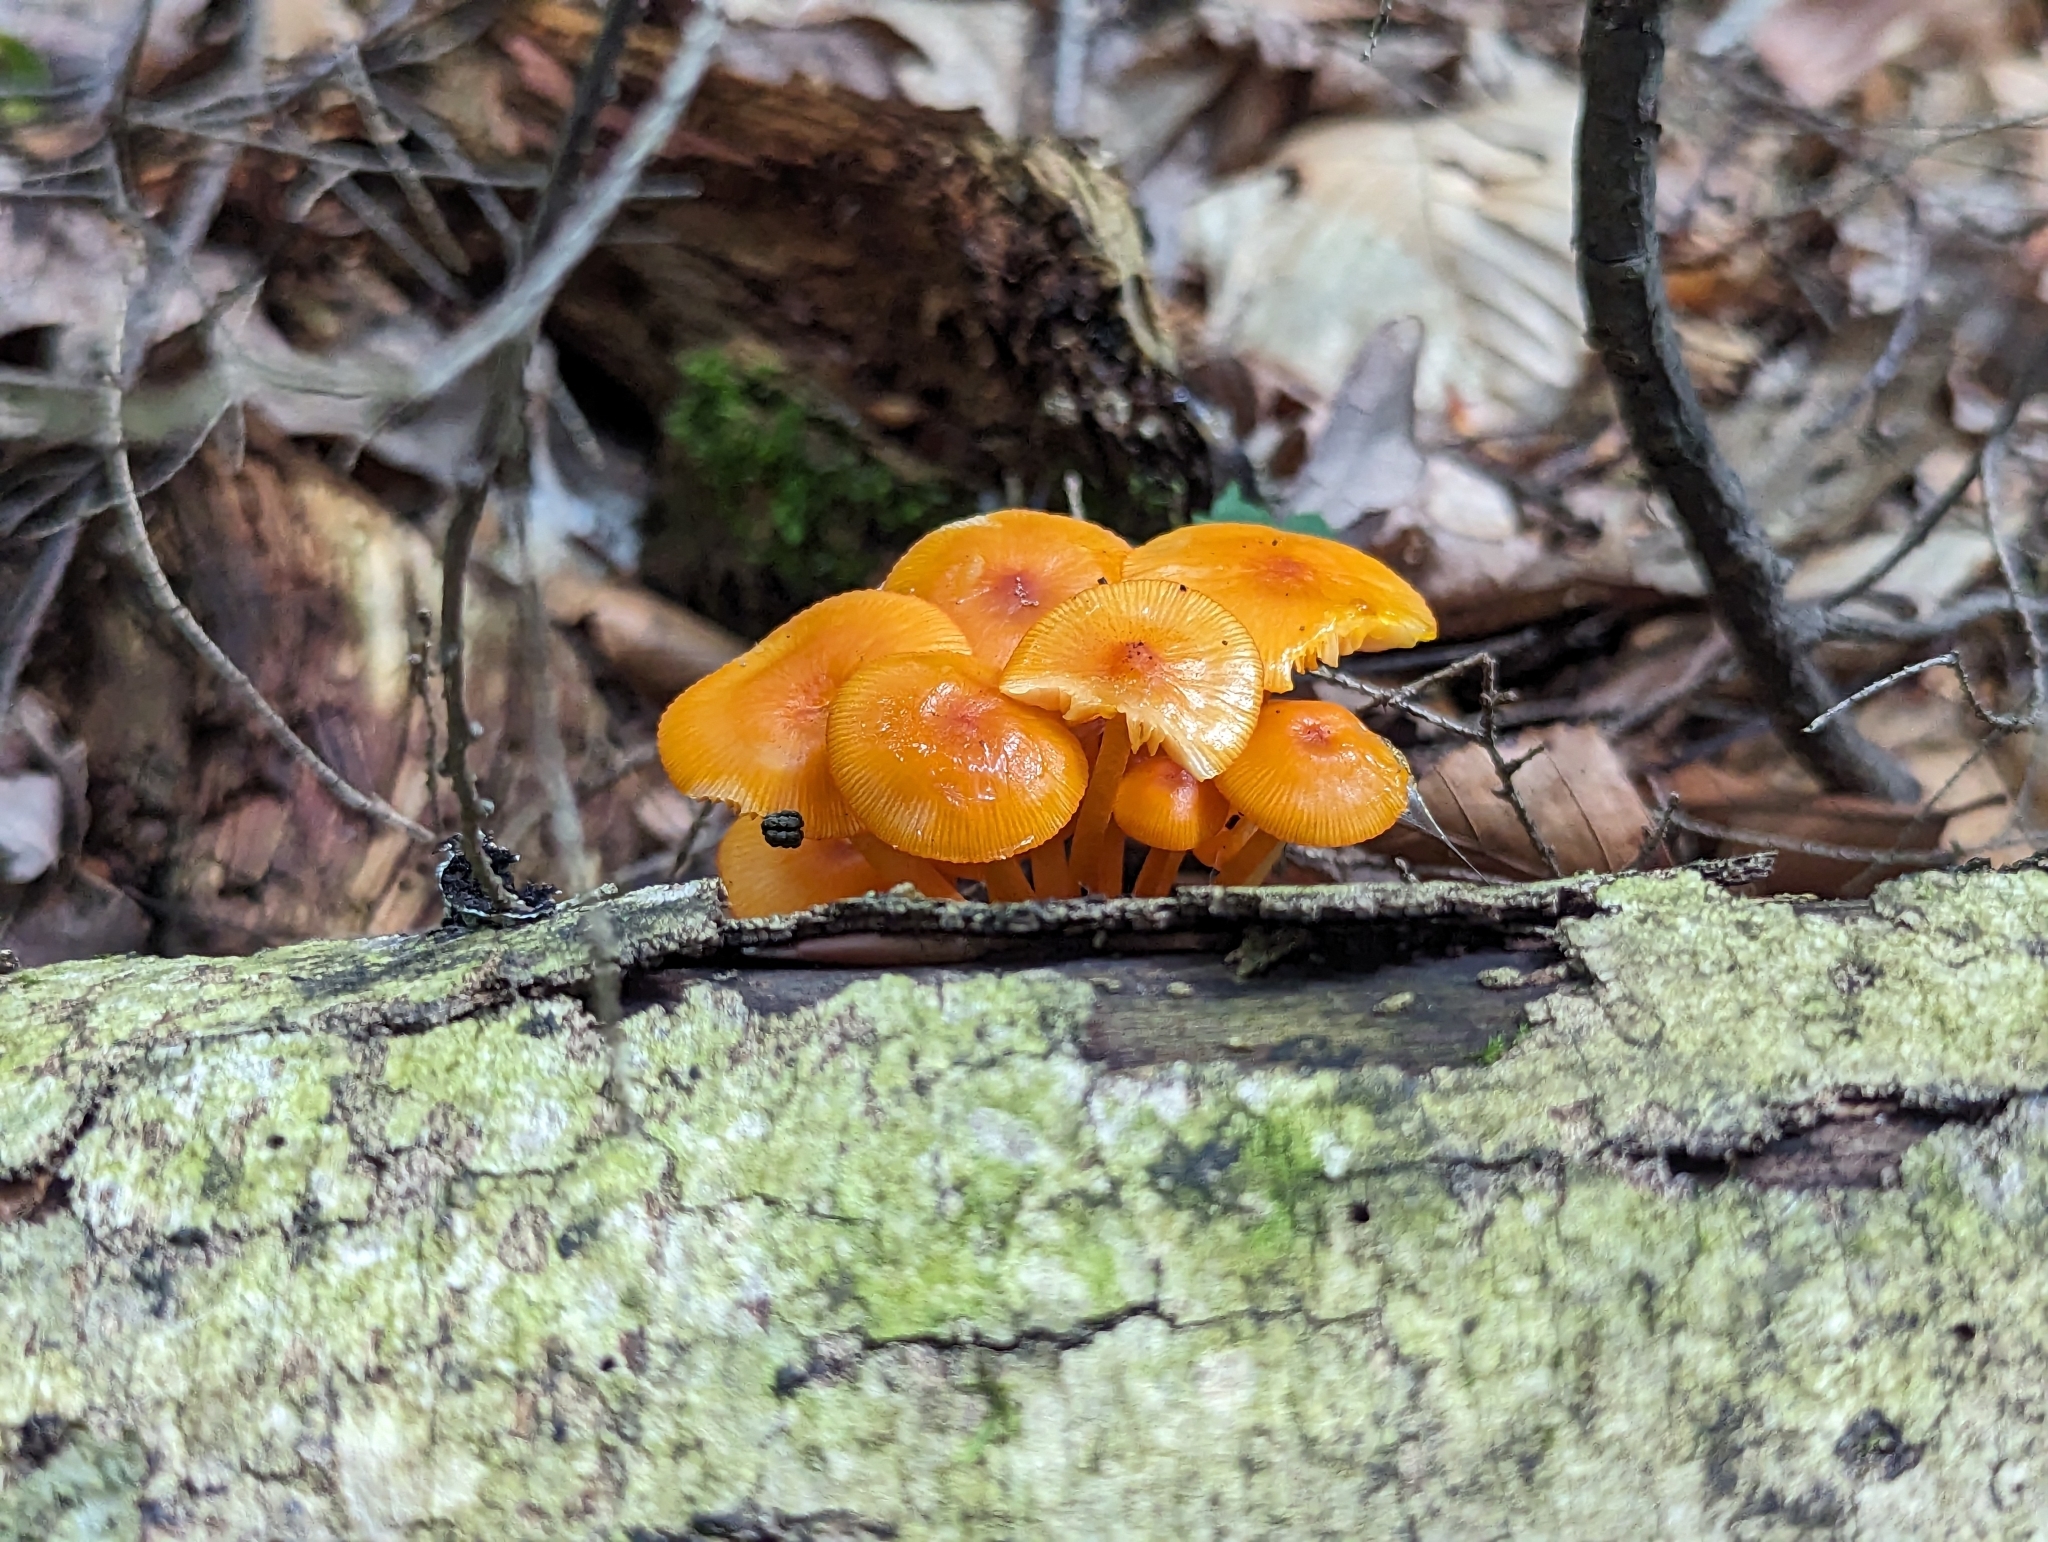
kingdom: Fungi
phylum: Basidiomycota
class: Agaricomycetes
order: Agaricales
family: Mycenaceae
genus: Mycena
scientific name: Mycena leaiana
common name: Orange mycena
